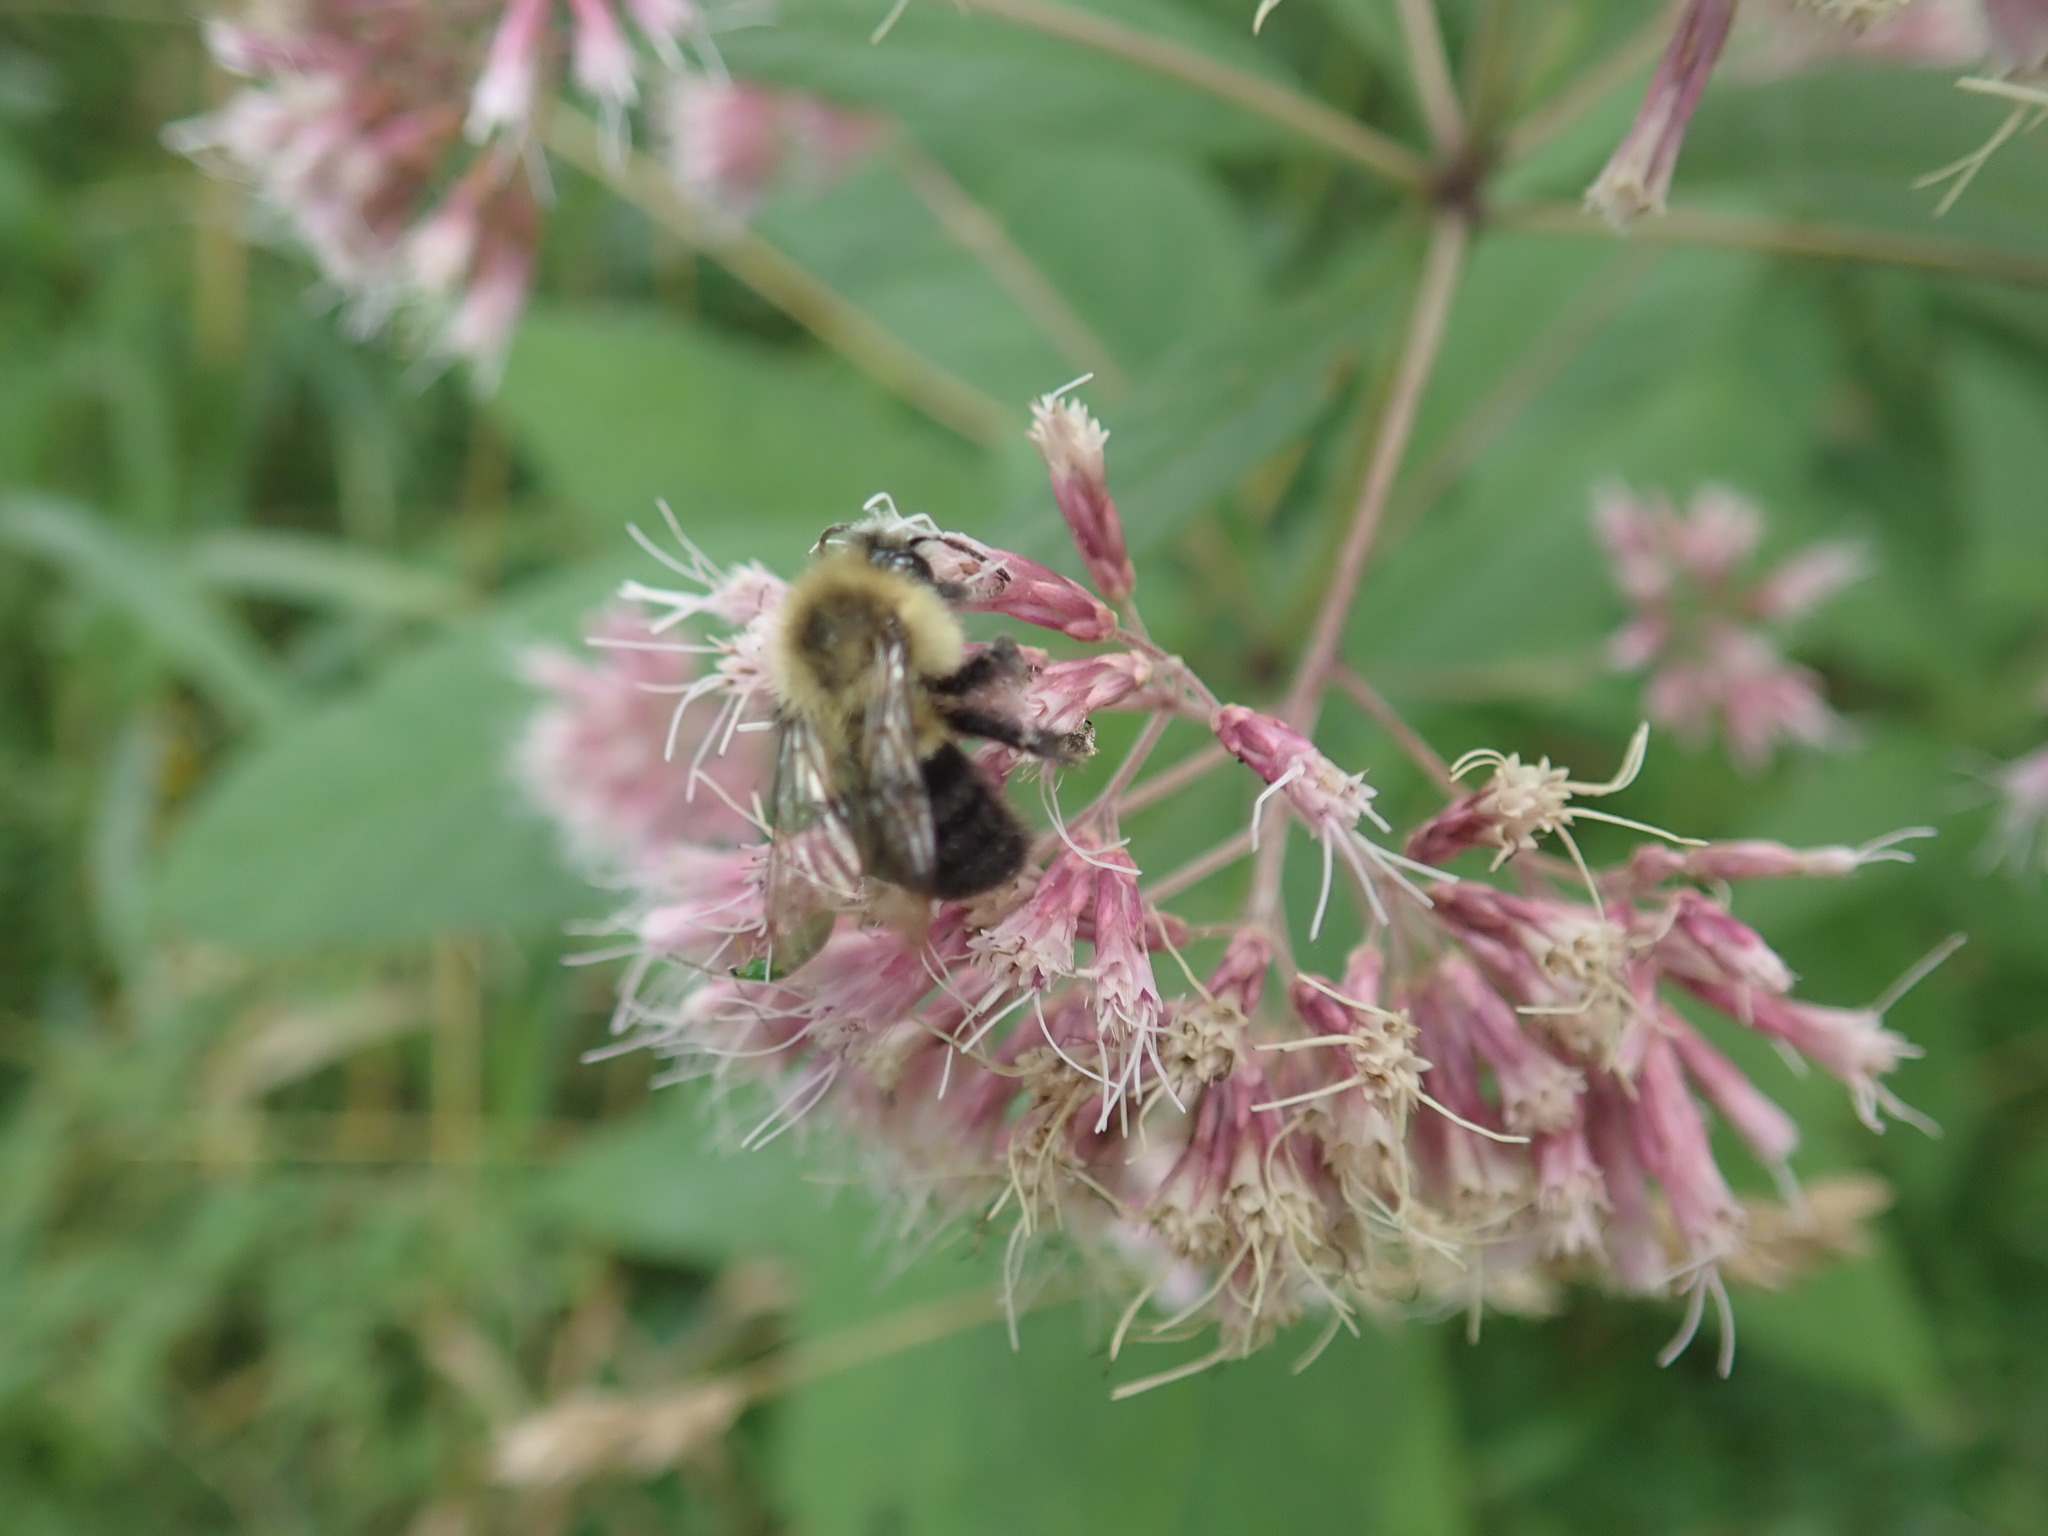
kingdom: Animalia
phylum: Arthropoda
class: Insecta
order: Hymenoptera
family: Apidae
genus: Bombus
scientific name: Bombus impatiens
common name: Common eastern bumble bee
